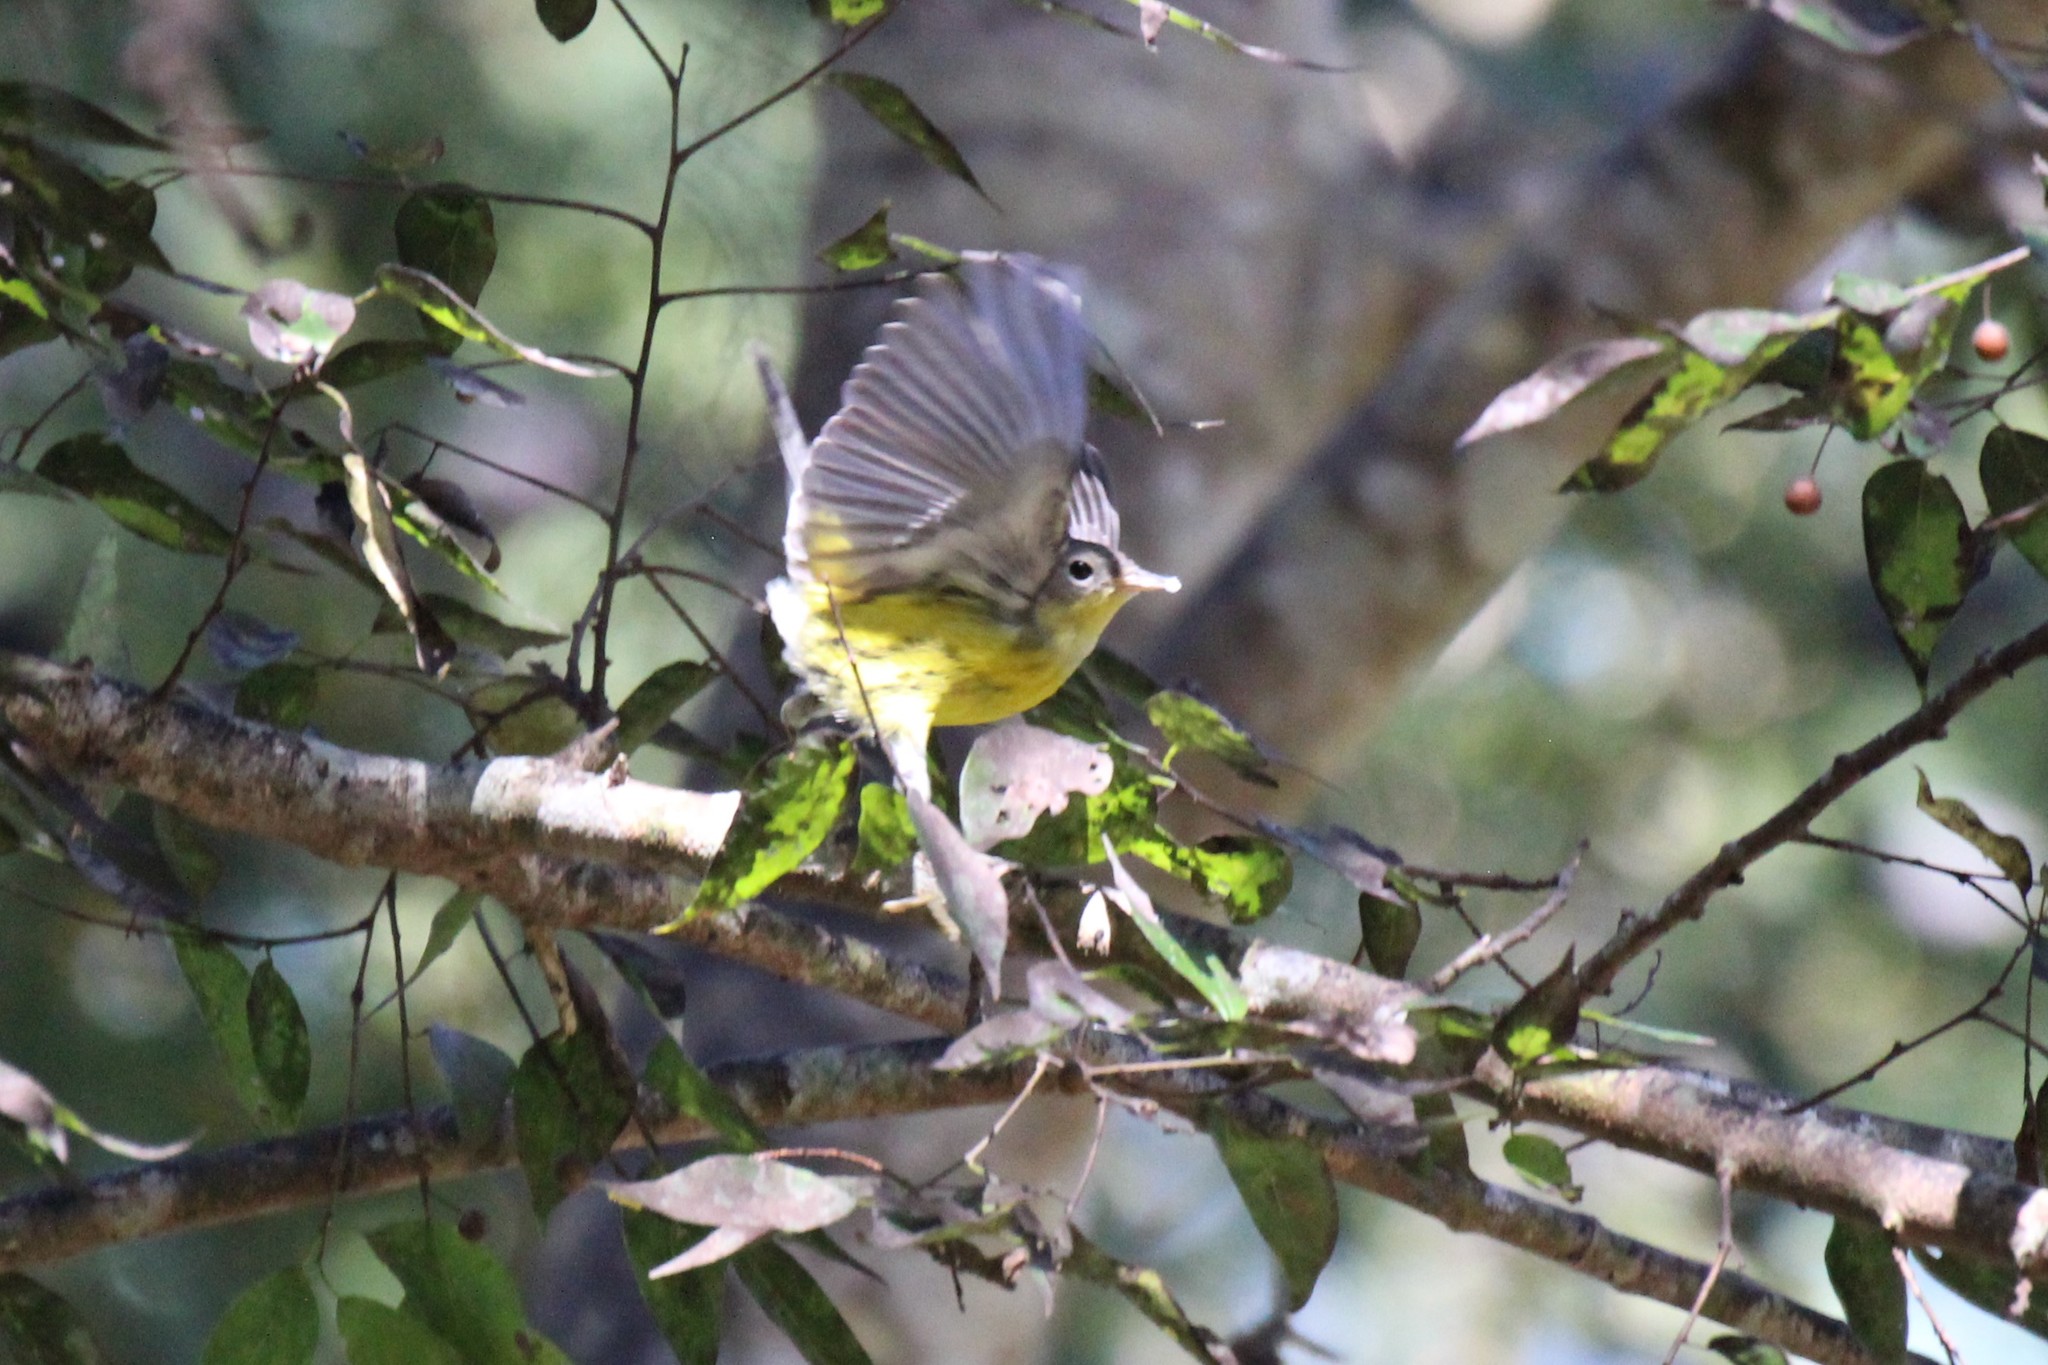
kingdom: Animalia
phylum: Chordata
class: Aves
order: Passeriformes
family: Parulidae
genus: Setophaga
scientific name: Setophaga magnolia
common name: Magnolia warbler
